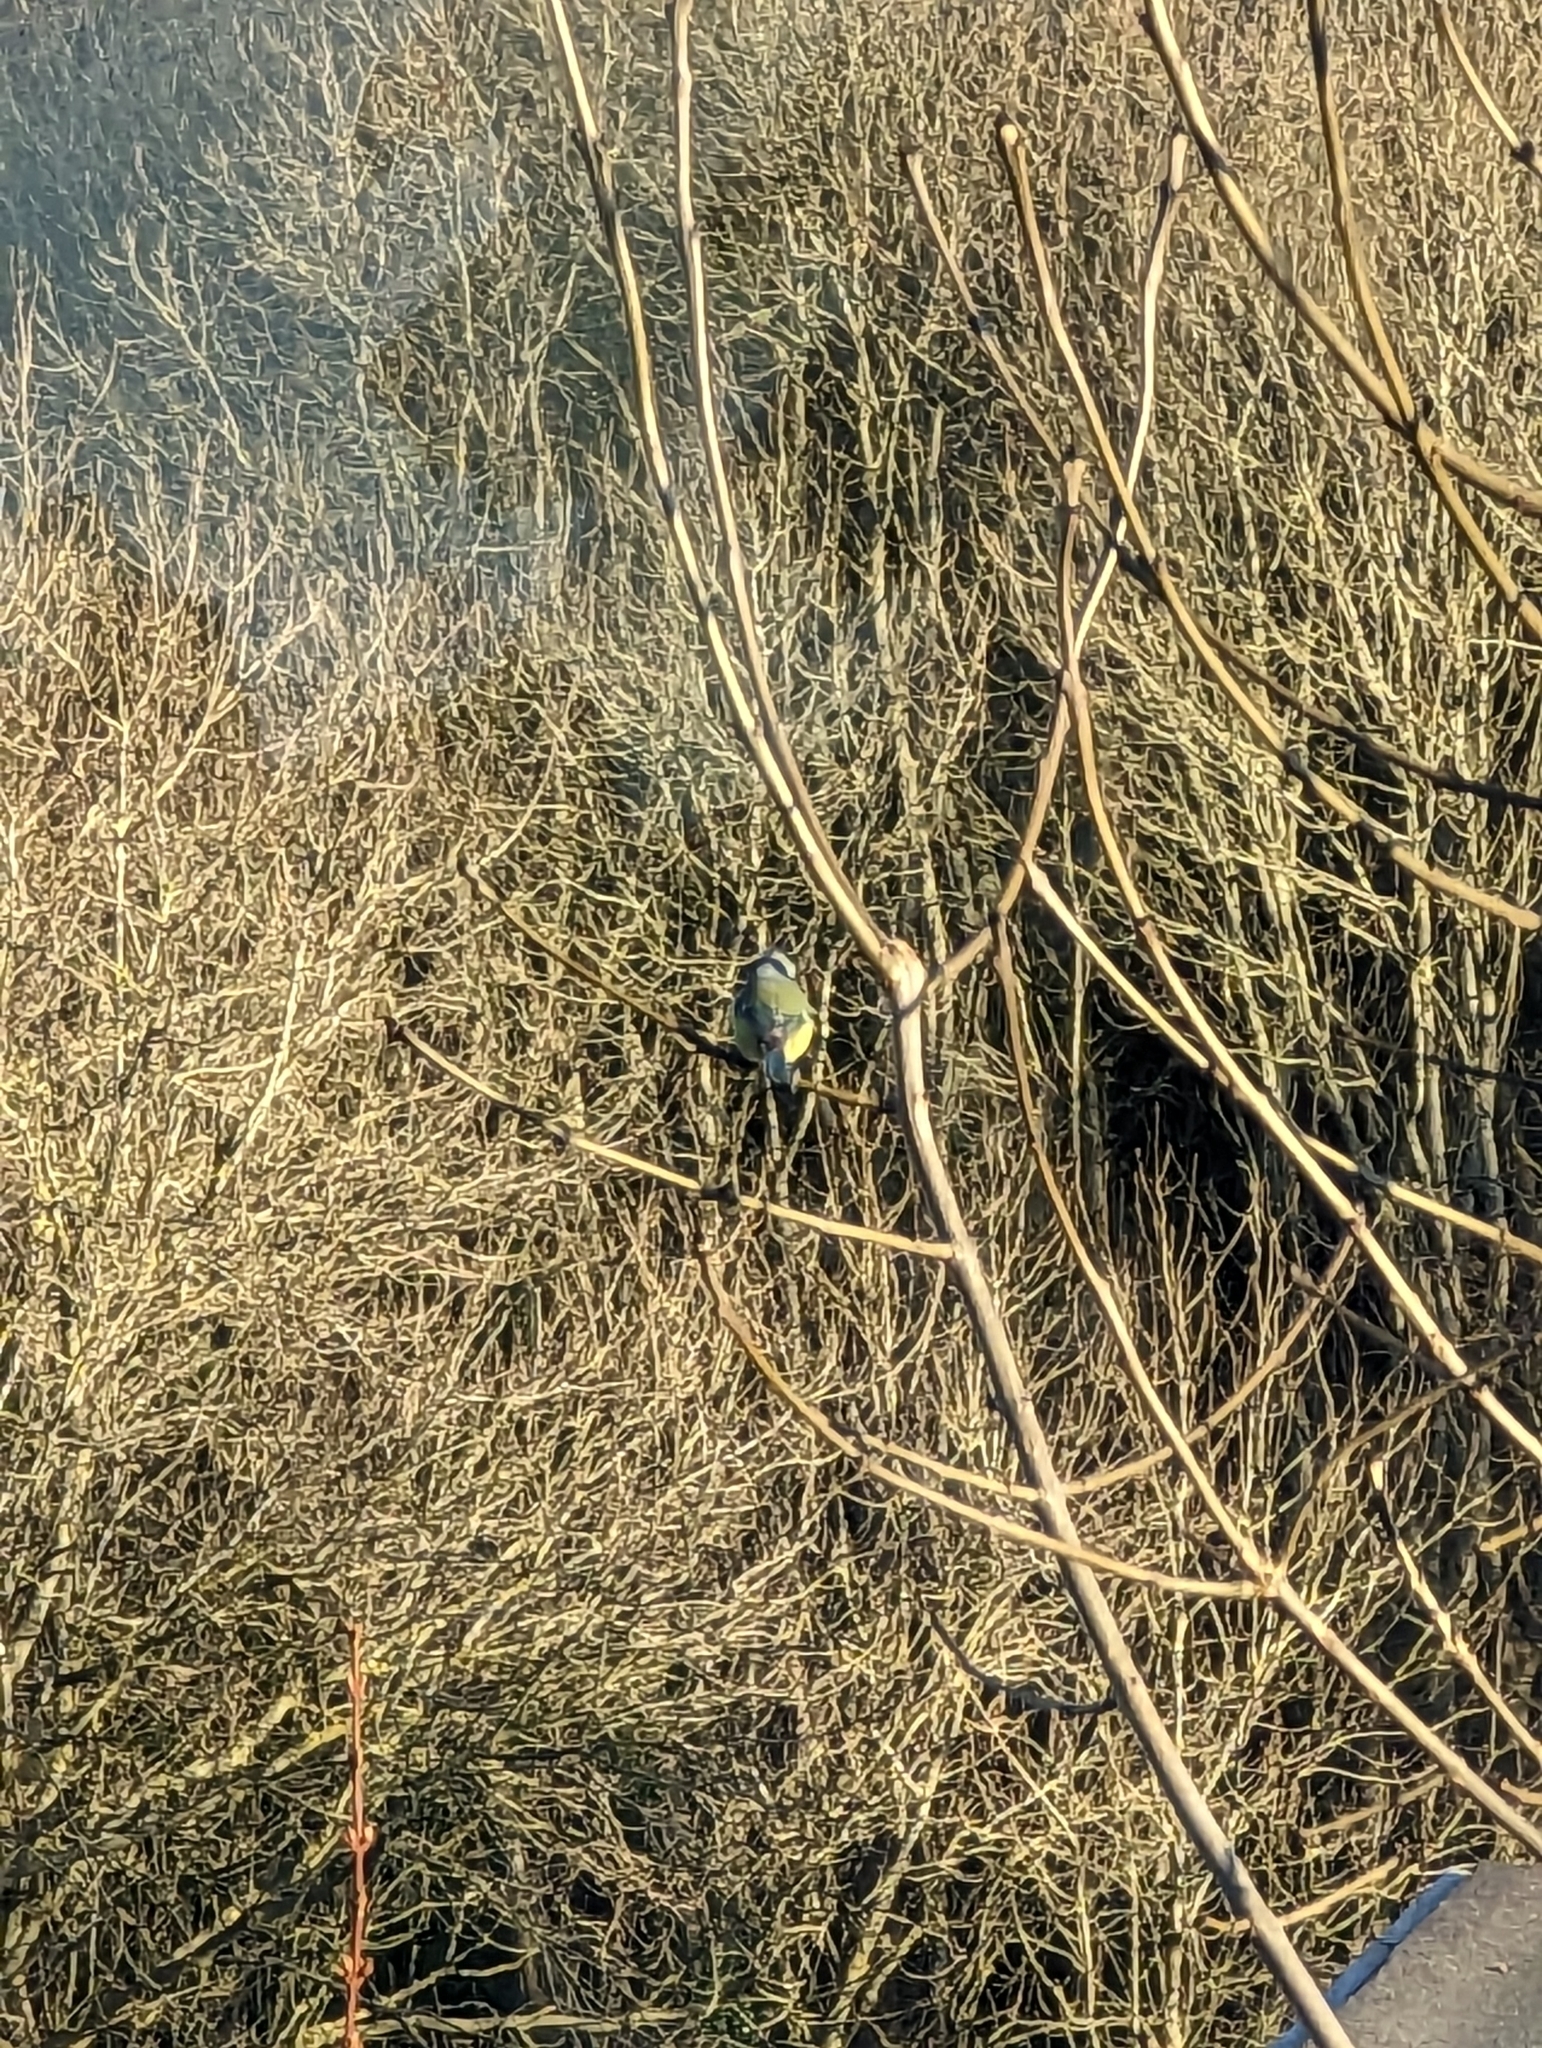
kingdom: Animalia
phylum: Chordata
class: Aves
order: Passeriformes
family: Paridae
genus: Cyanistes
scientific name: Cyanistes caeruleus
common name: Eurasian blue tit
